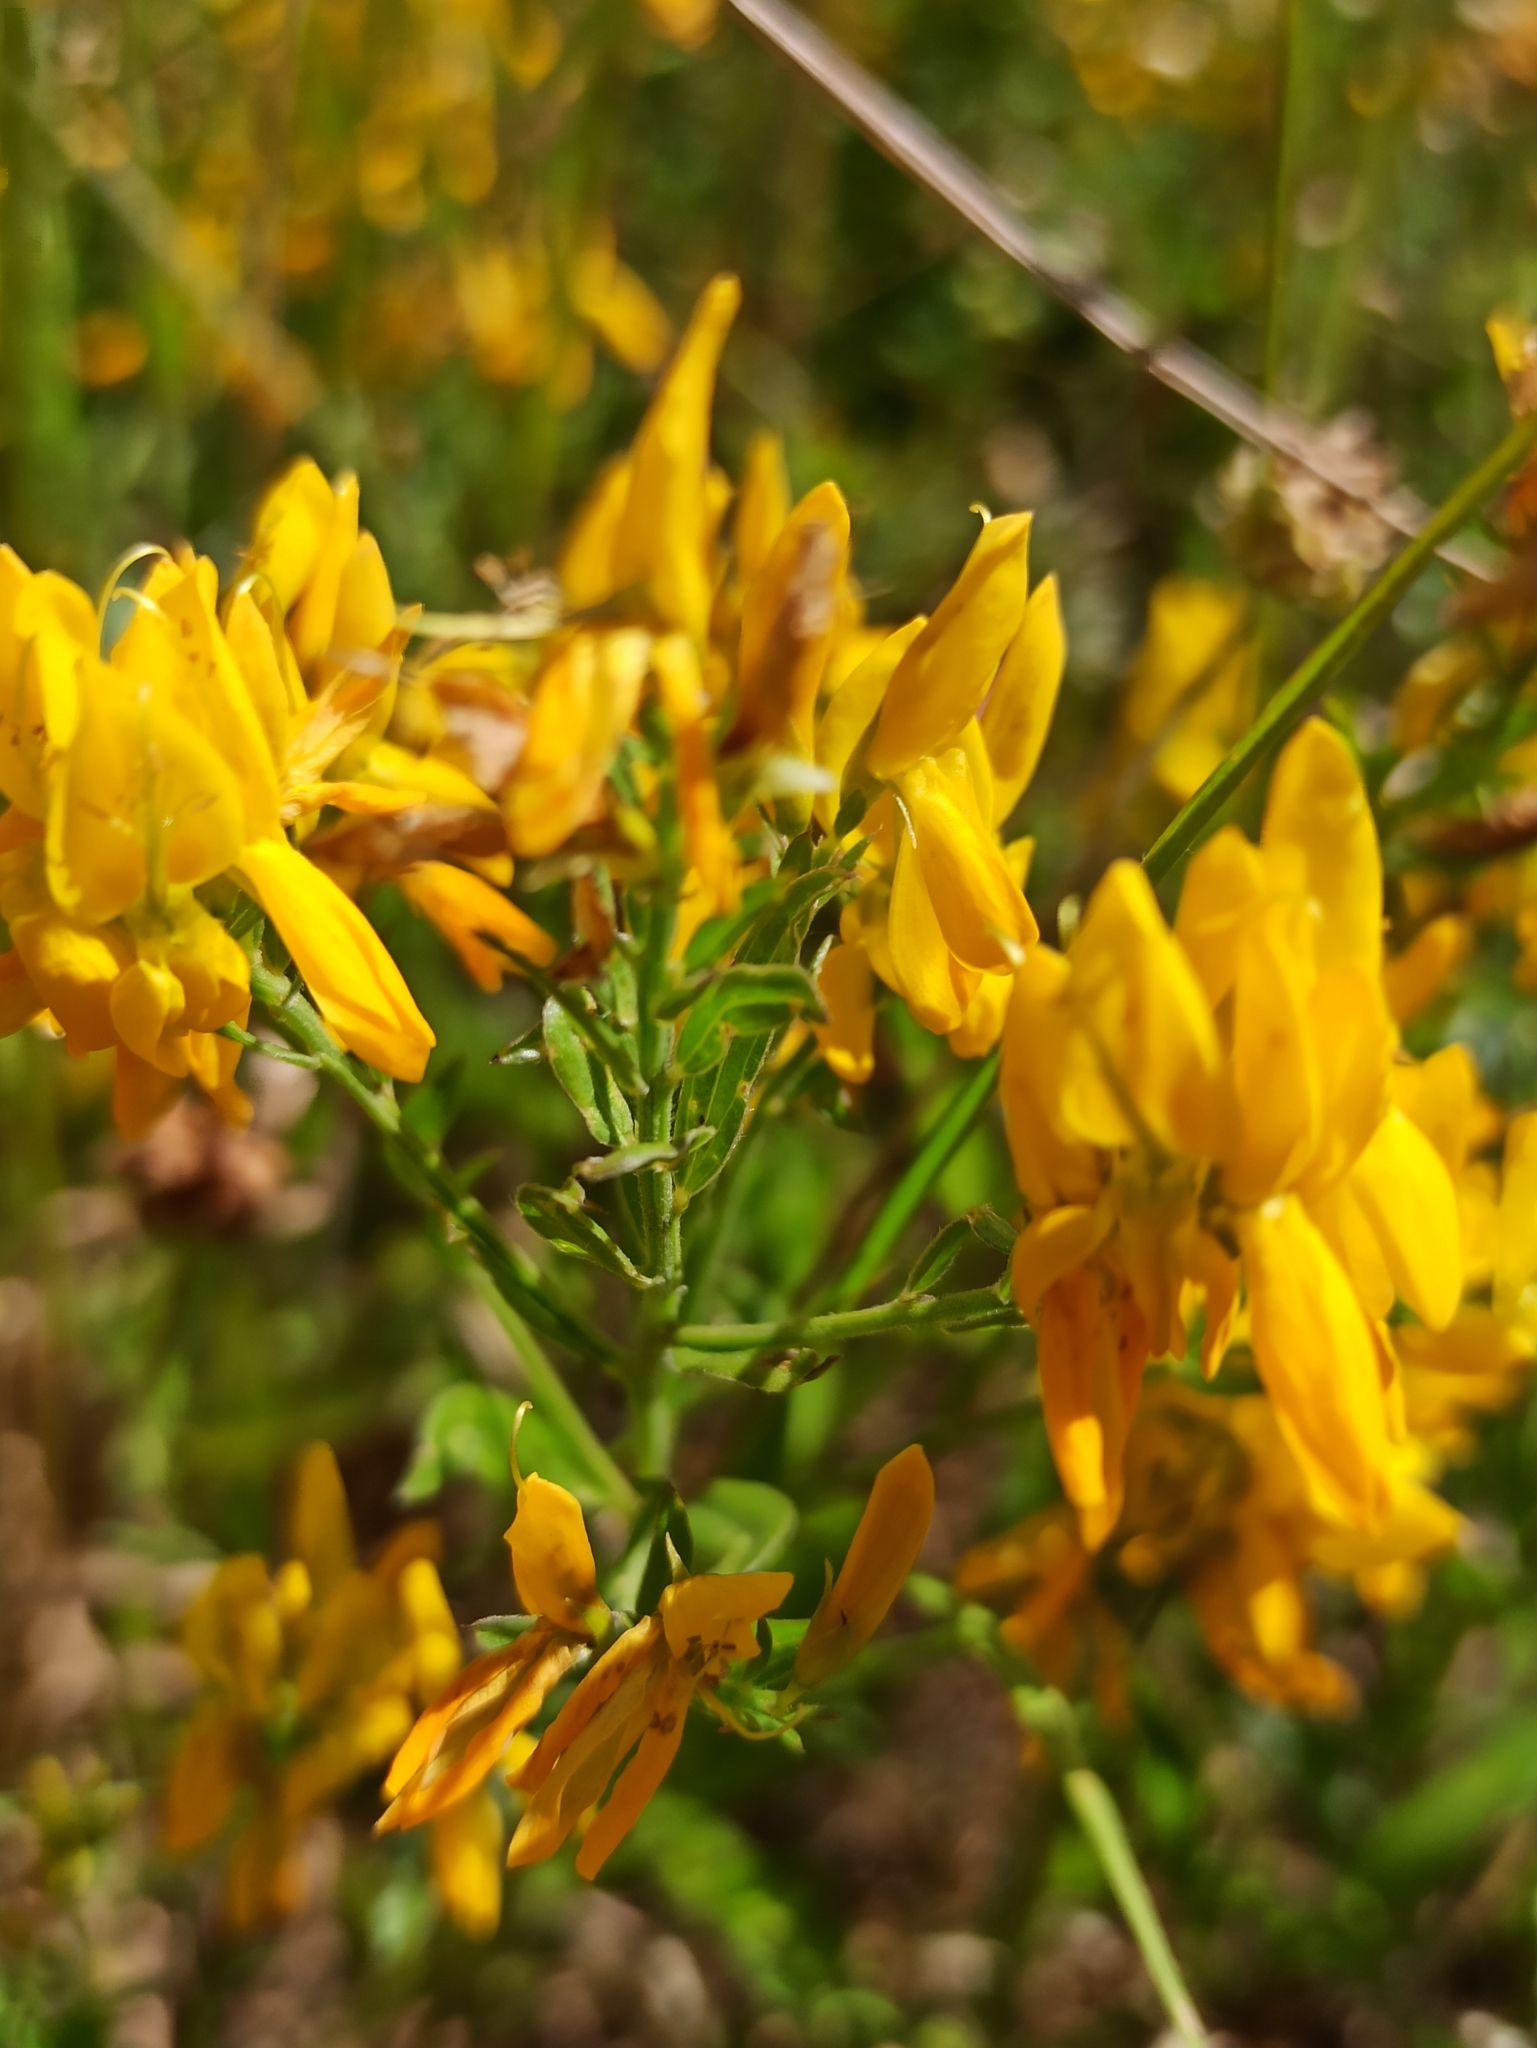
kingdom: Plantae
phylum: Tracheophyta
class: Magnoliopsida
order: Fabales
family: Fabaceae
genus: Genista
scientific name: Genista tinctoria
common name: Dyer's greenweed
